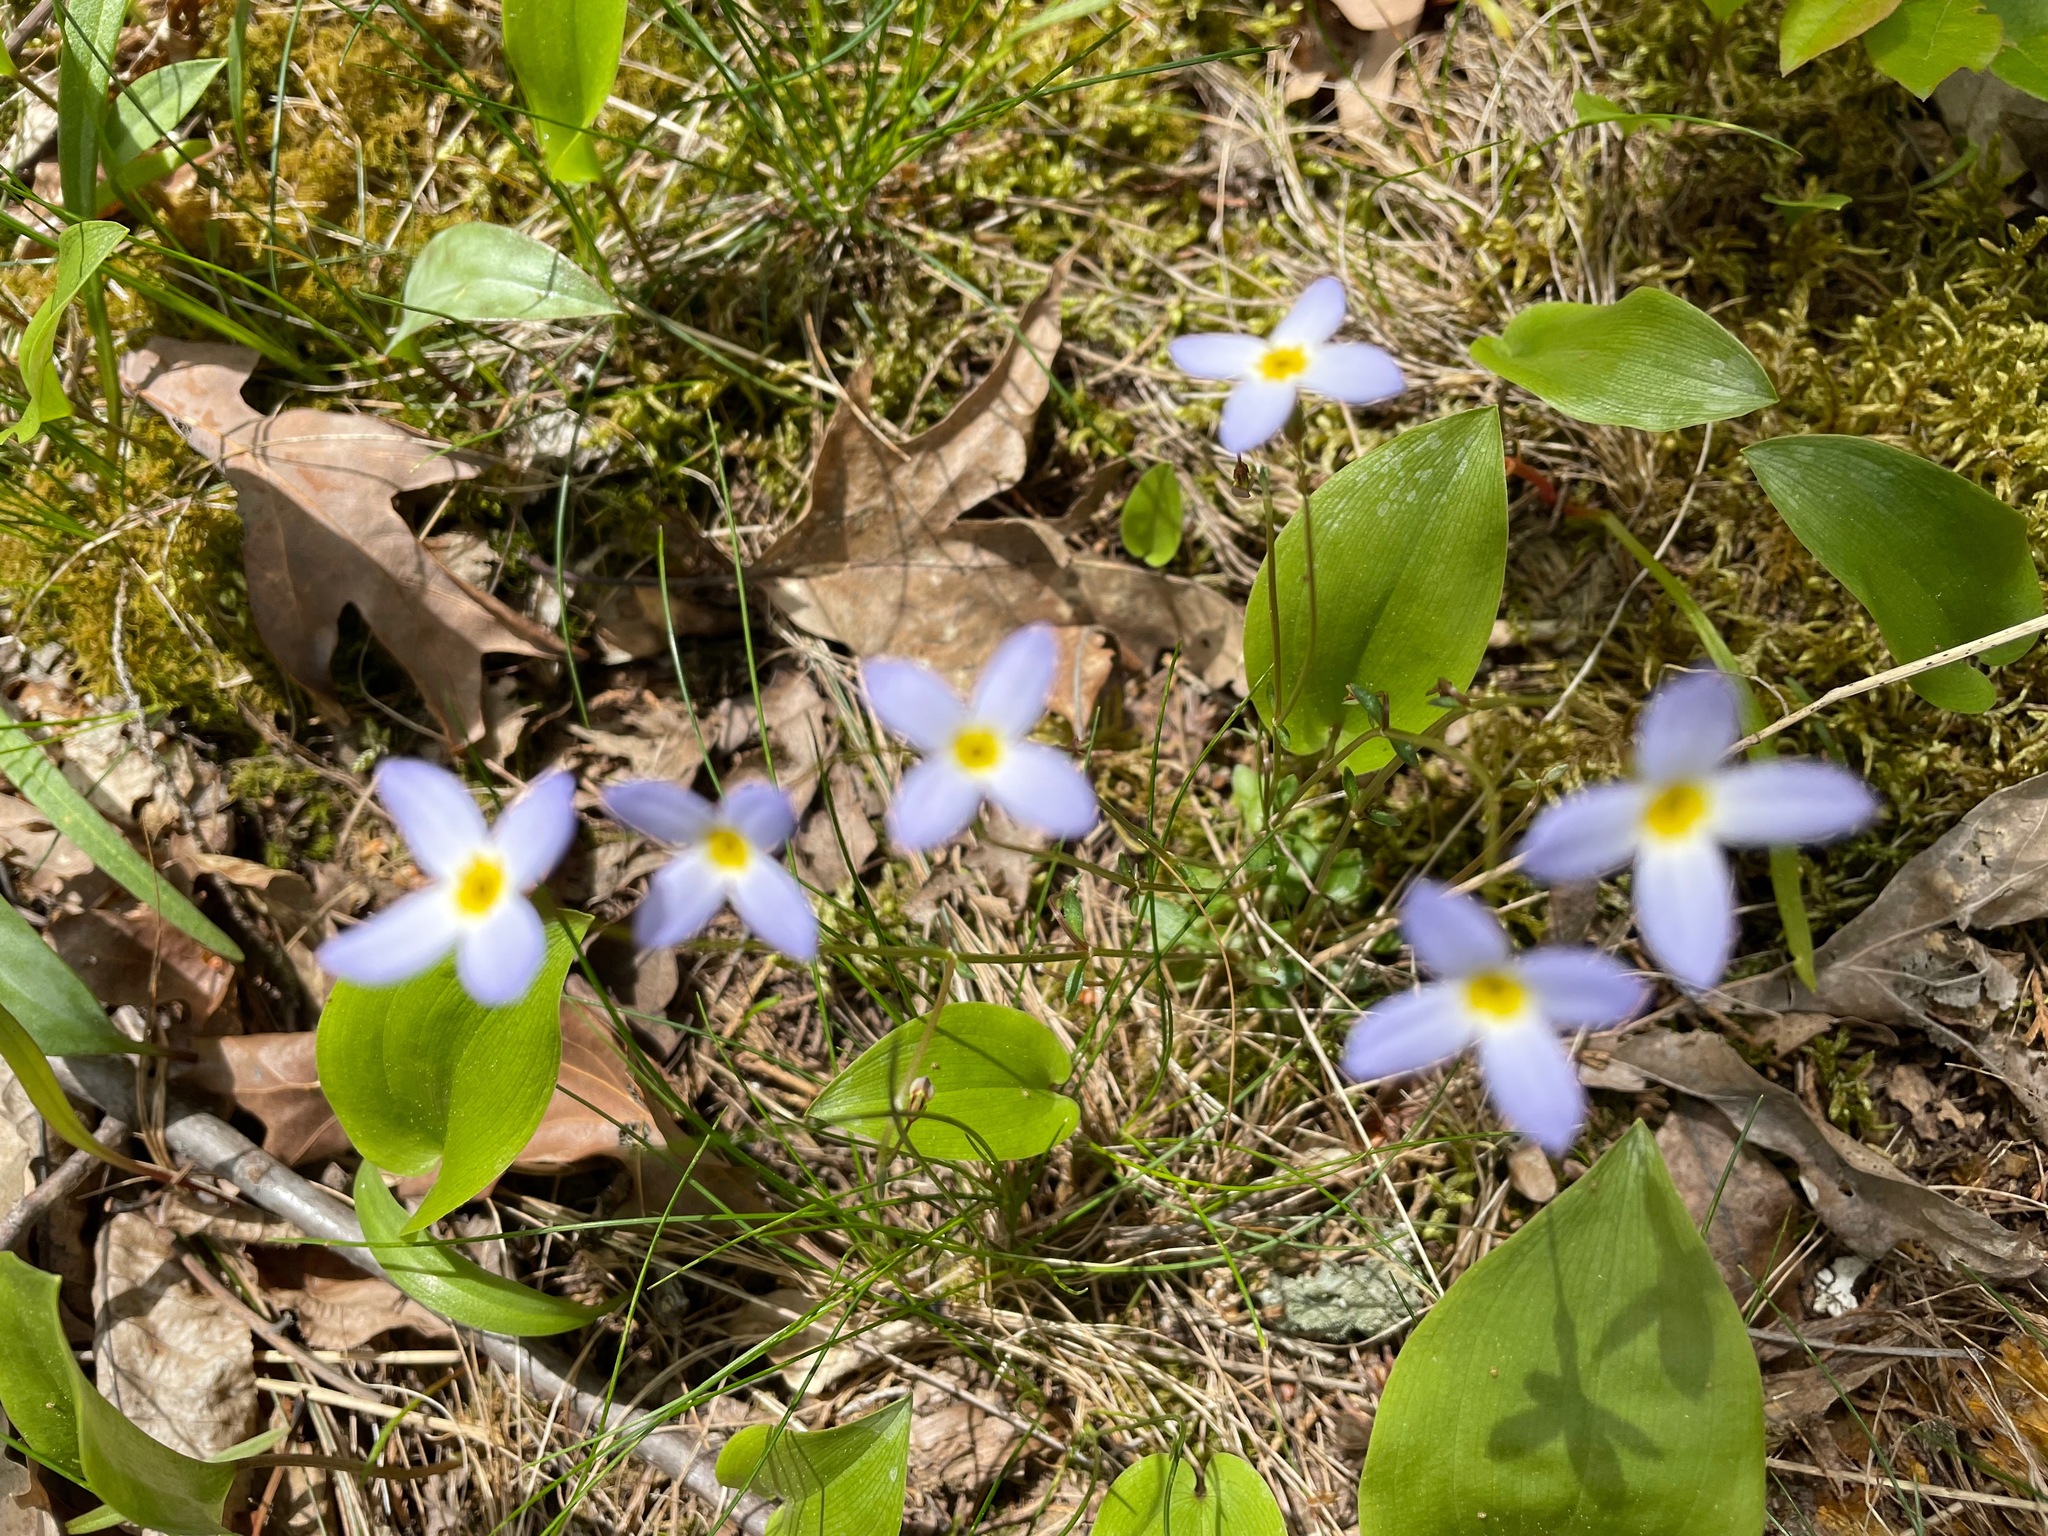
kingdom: Plantae
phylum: Tracheophyta
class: Magnoliopsida
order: Gentianales
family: Rubiaceae
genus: Houstonia
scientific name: Houstonia caerulea
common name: Bluets
